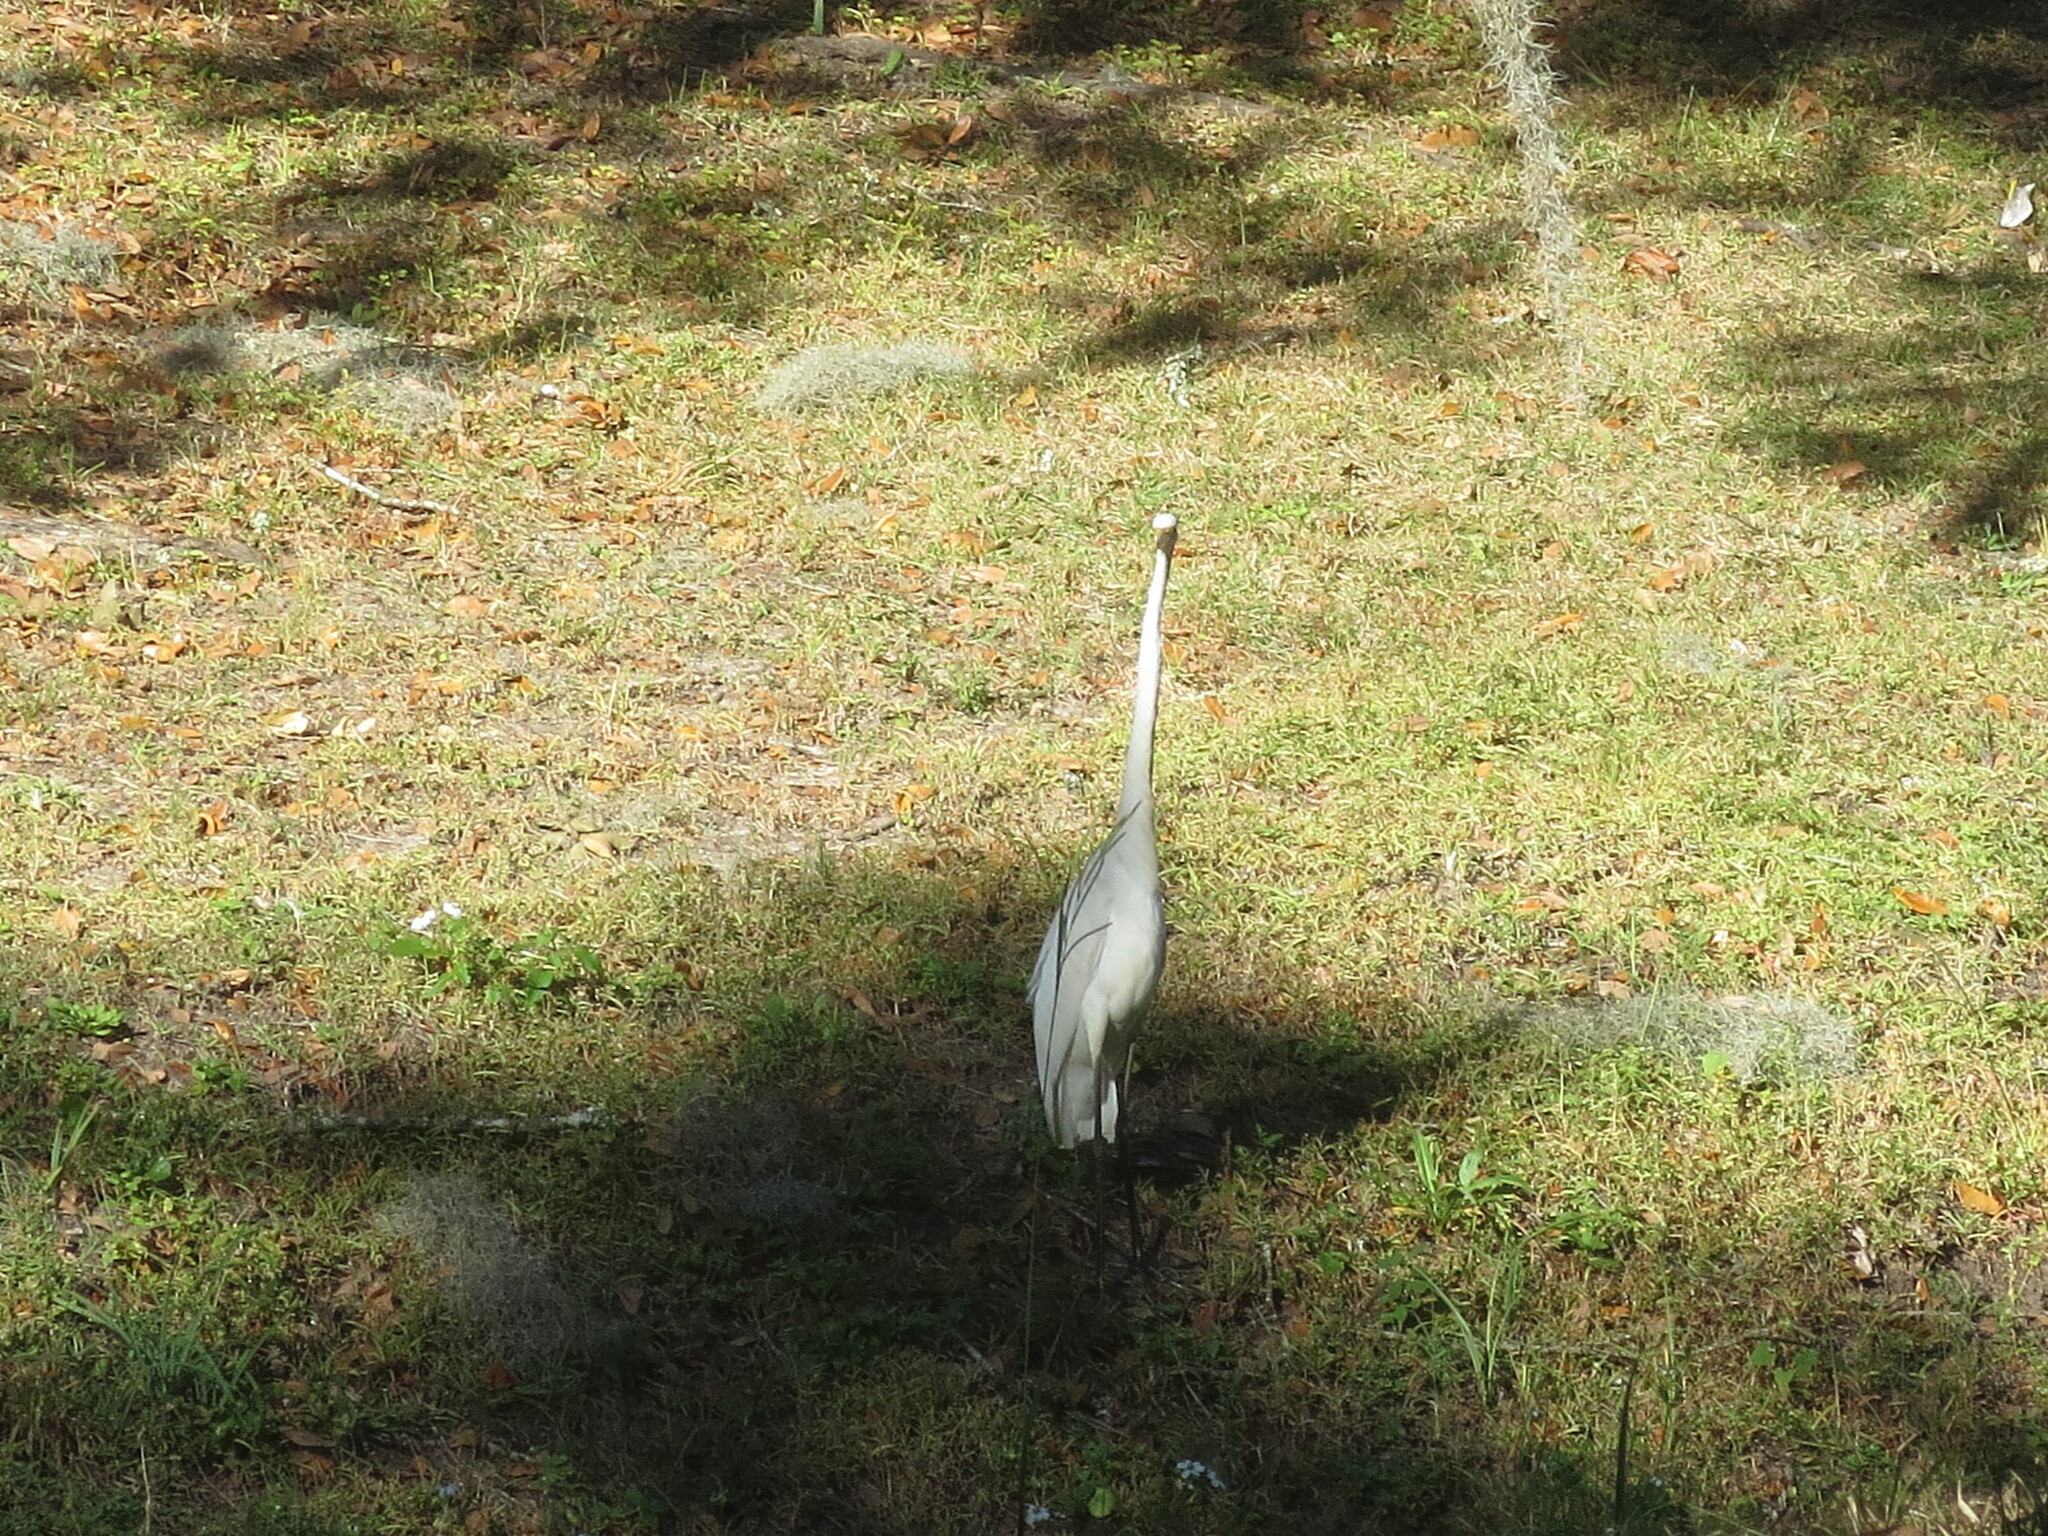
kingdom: Animalia
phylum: Chordata
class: Aves
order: Pelecaniformes
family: Ardeidae
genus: Ardea
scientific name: Ardea alba
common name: Great egret
